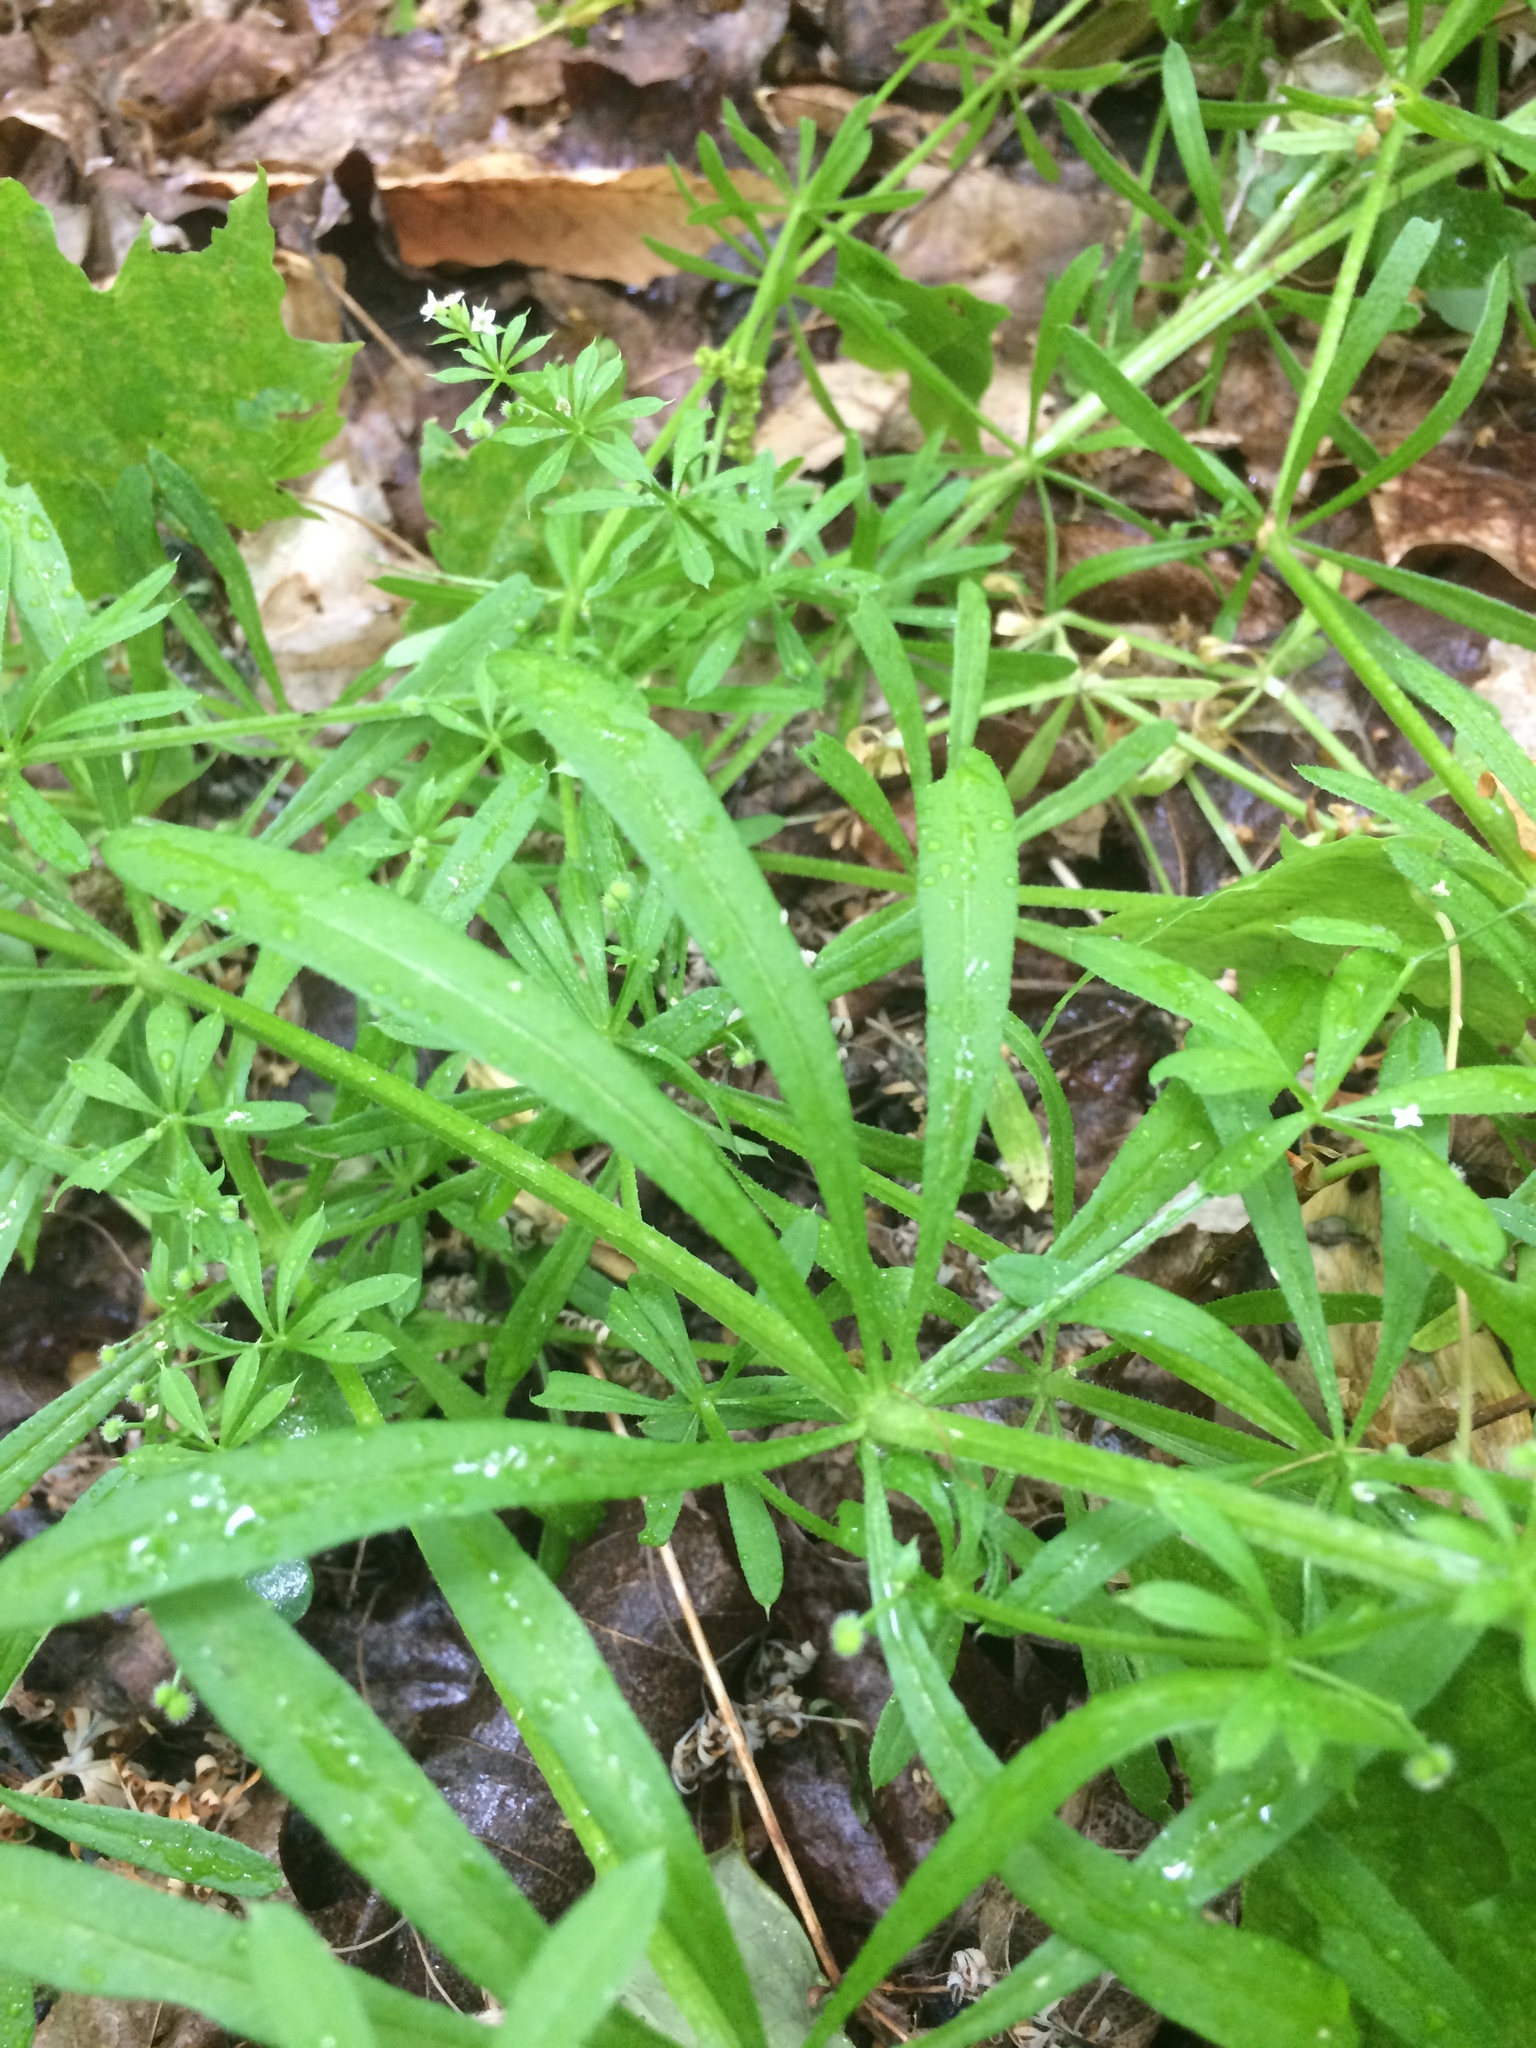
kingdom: Plantae
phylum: Tracheophyta
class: Magnoliopsida
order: Gentianales
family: Rubiaceae
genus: Galium
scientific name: Galium aparine
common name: Cleavers
